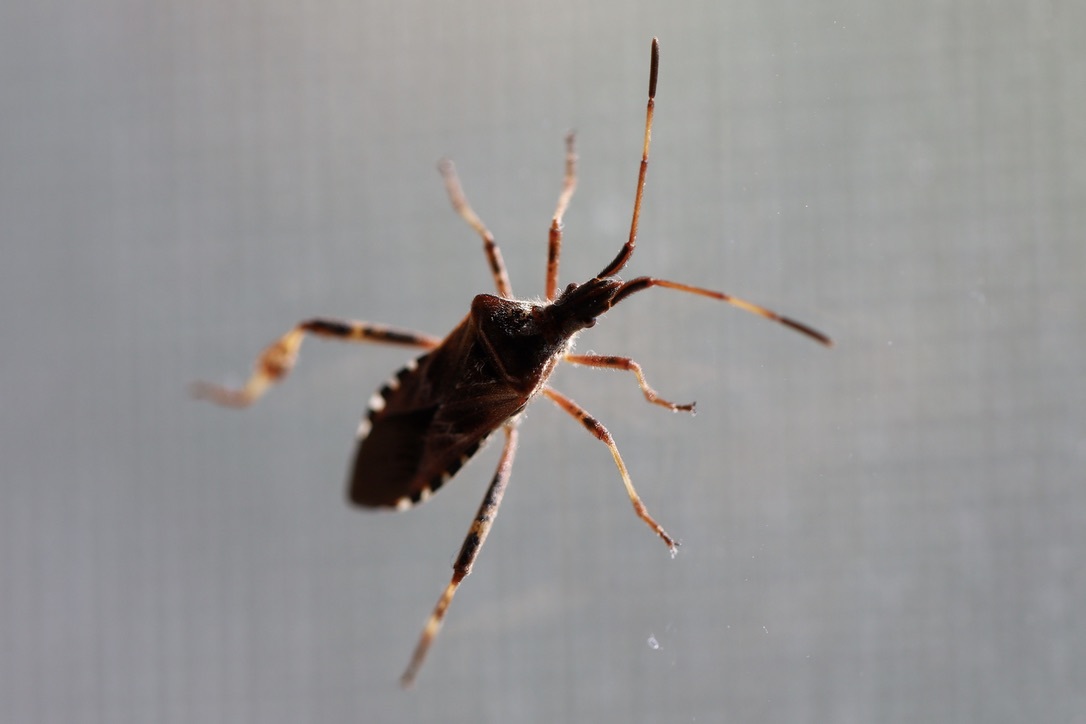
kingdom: Animalia
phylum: Arthropoda
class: Insecta
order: Hemiptera
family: Coreidae
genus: Leptoglossus
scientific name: Leptoglossus occidentalis
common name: Western conifer-seed bug
